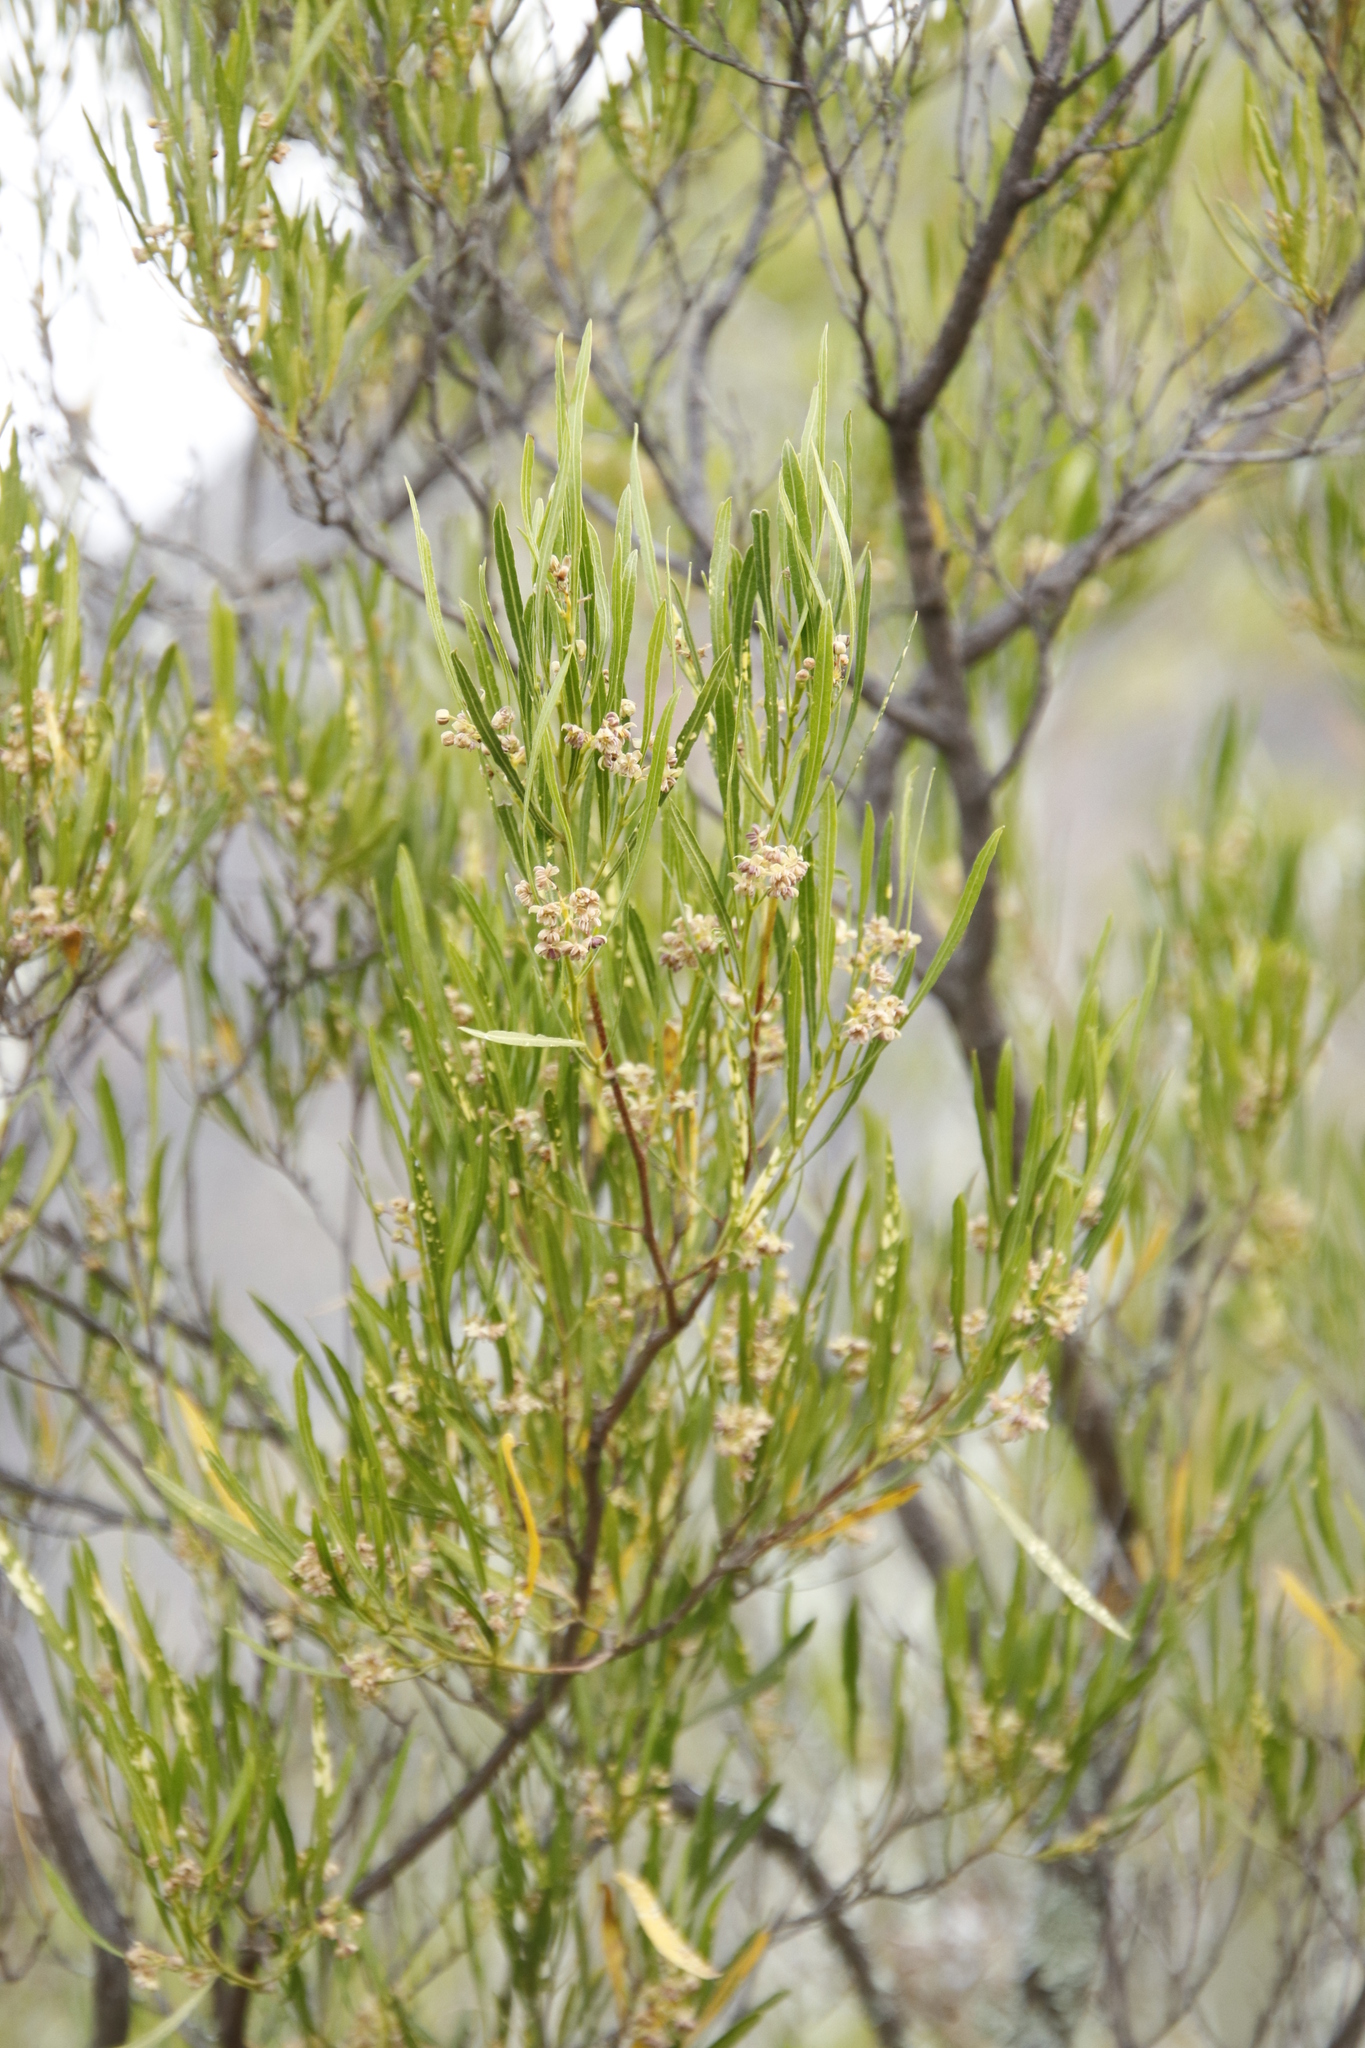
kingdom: Plantae
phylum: Tracheophyta
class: Magnoliopsida
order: Sapindales
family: Sapindaceae
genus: Dodonaea
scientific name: Dodonaea viscosa
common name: Hopbush
